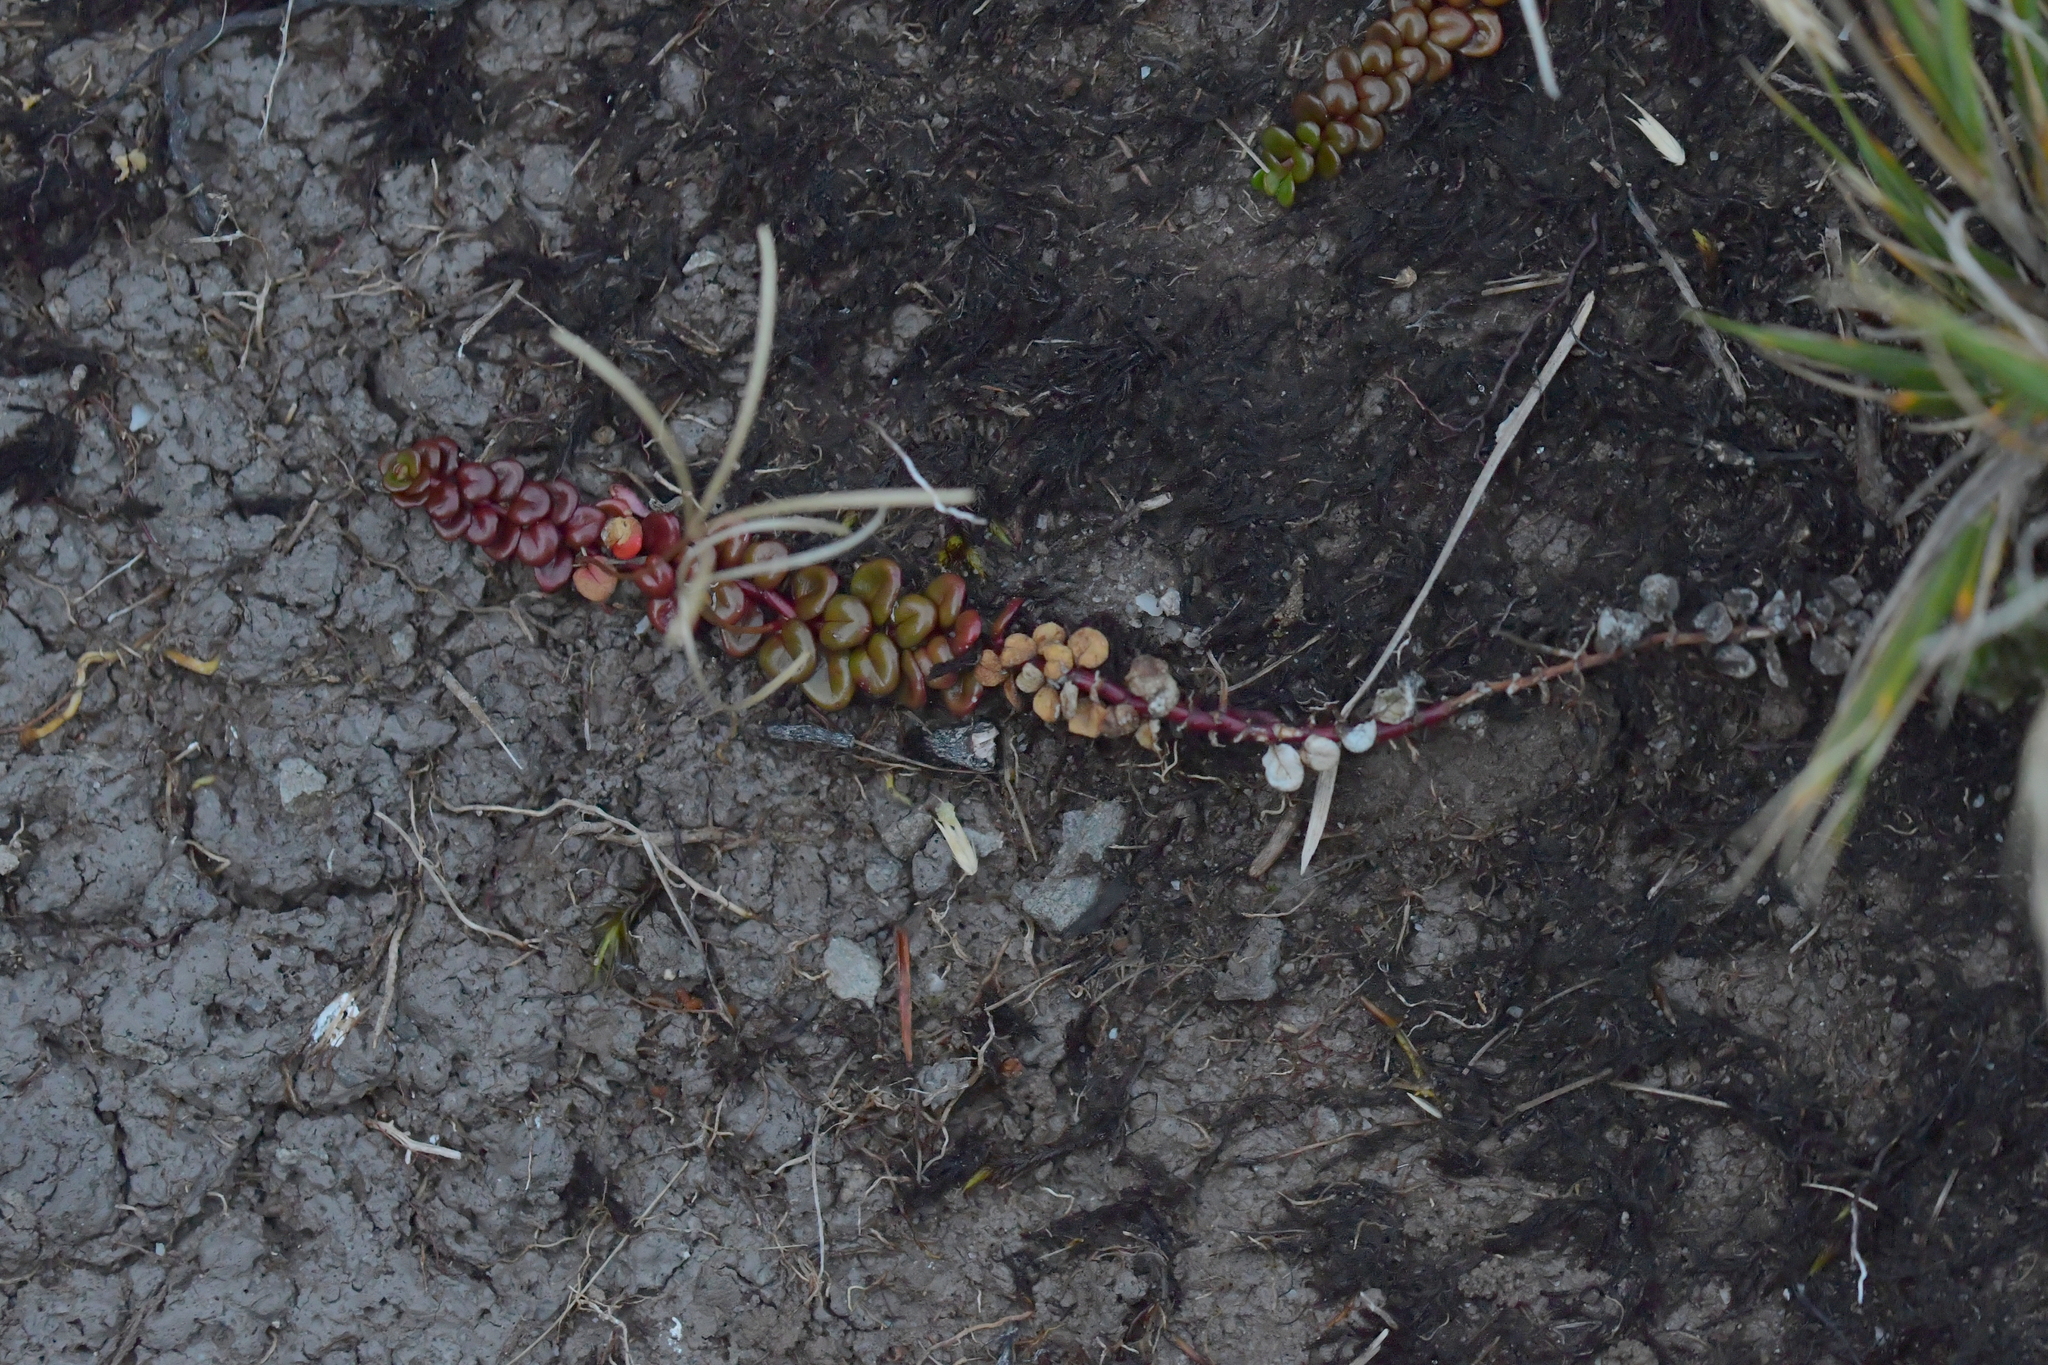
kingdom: Plantae
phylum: Tracheophyta
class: Magnoliopsida
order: Myrtales
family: Onagraceae
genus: Epilobium
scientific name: Epilobium pernitens
